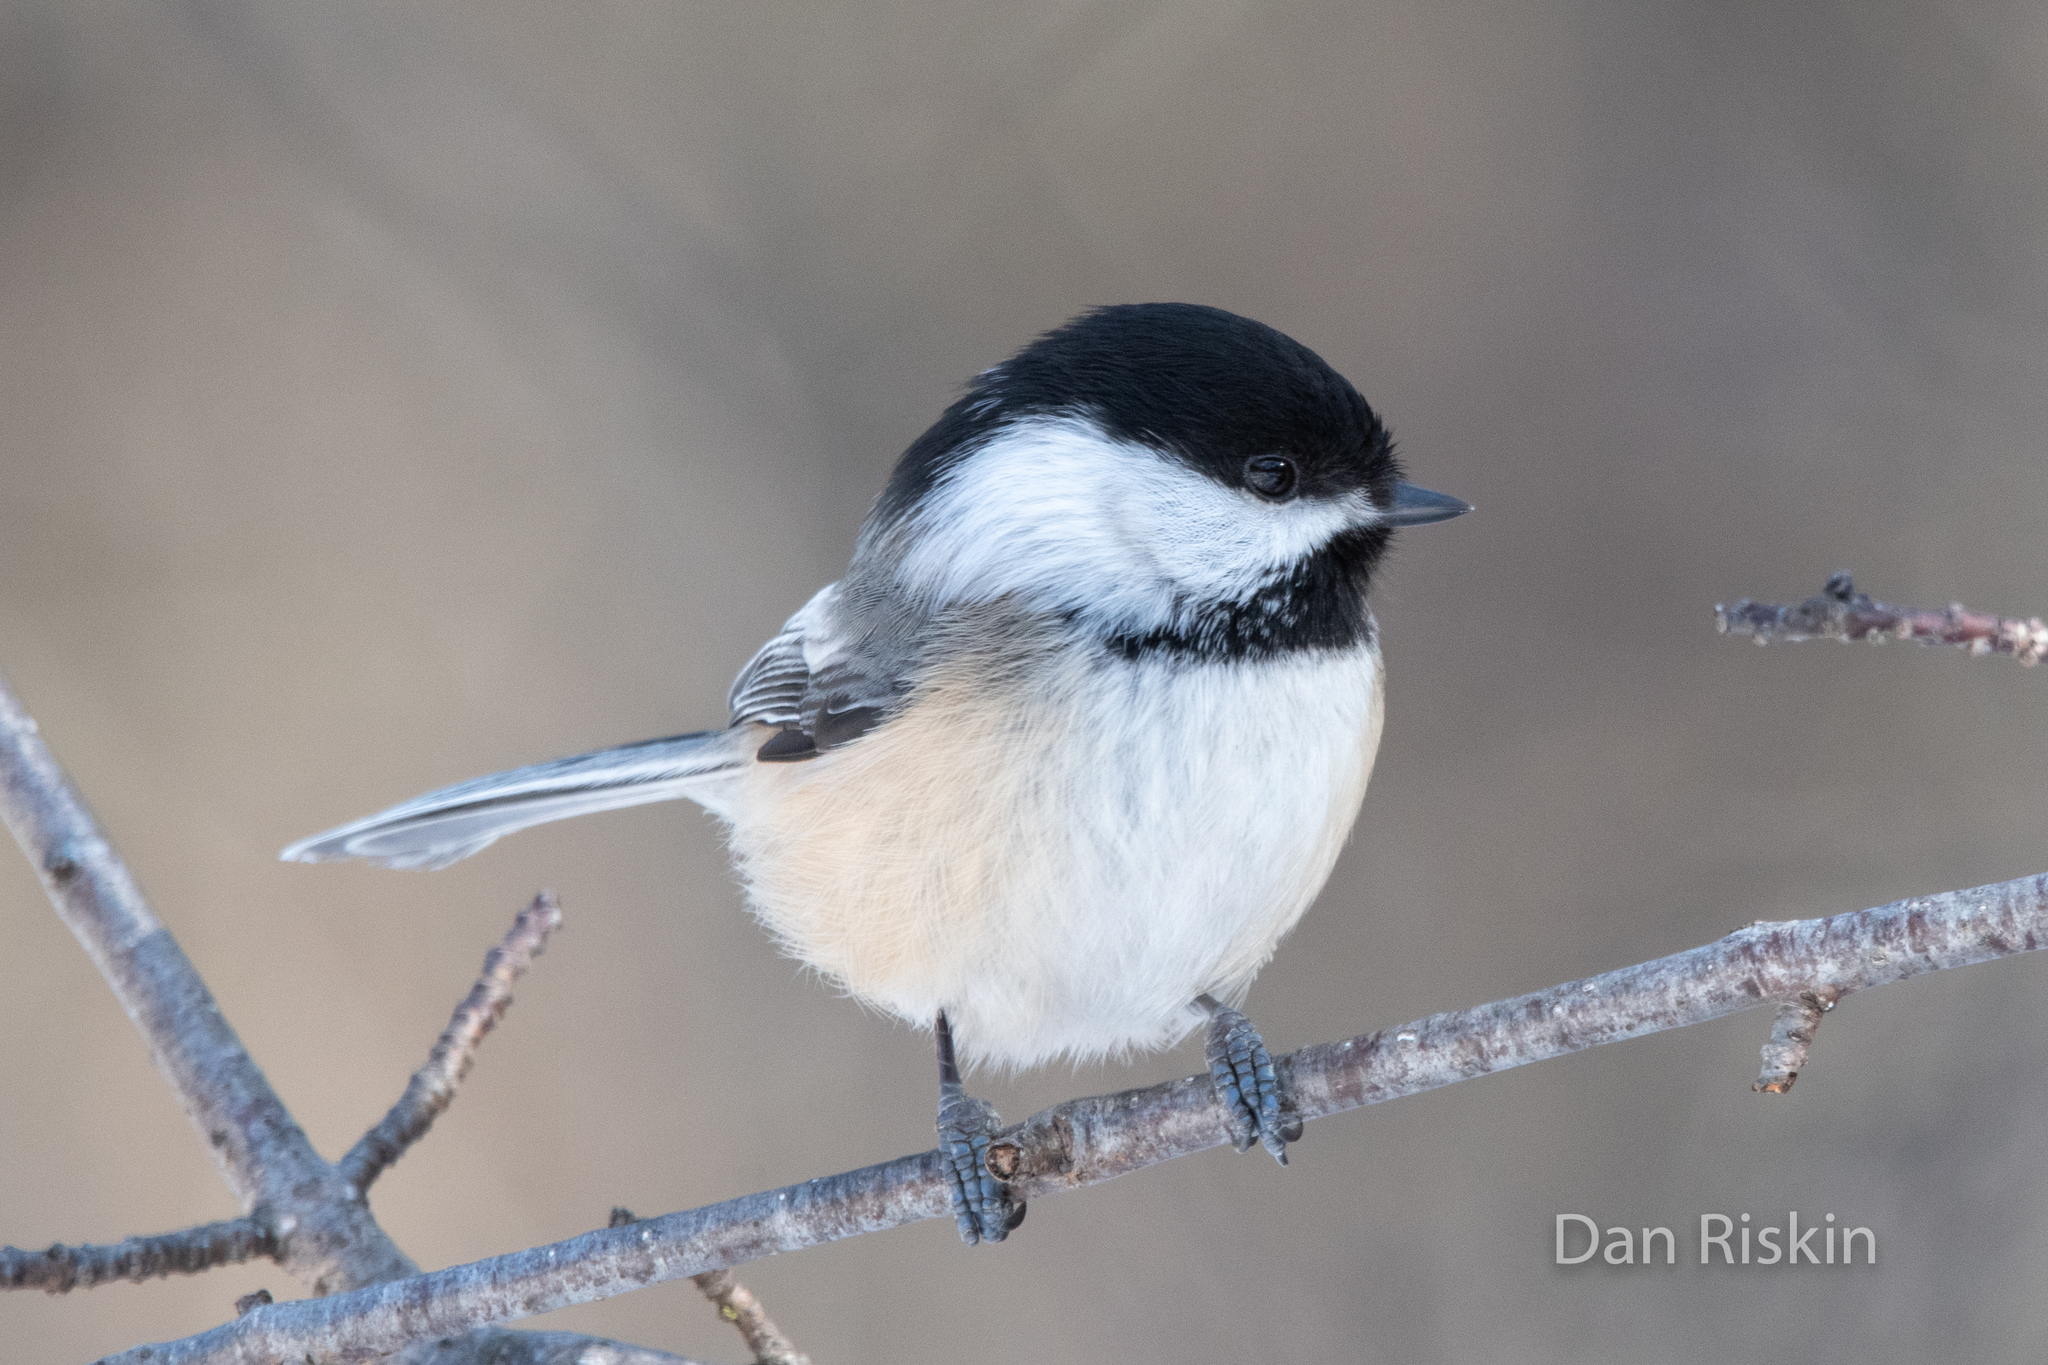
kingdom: Animalia
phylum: Chordata
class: Aves
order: Passeriformes
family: Paridae
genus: Poecile
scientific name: Poecile atricapillus
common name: Black-capped chickadee
